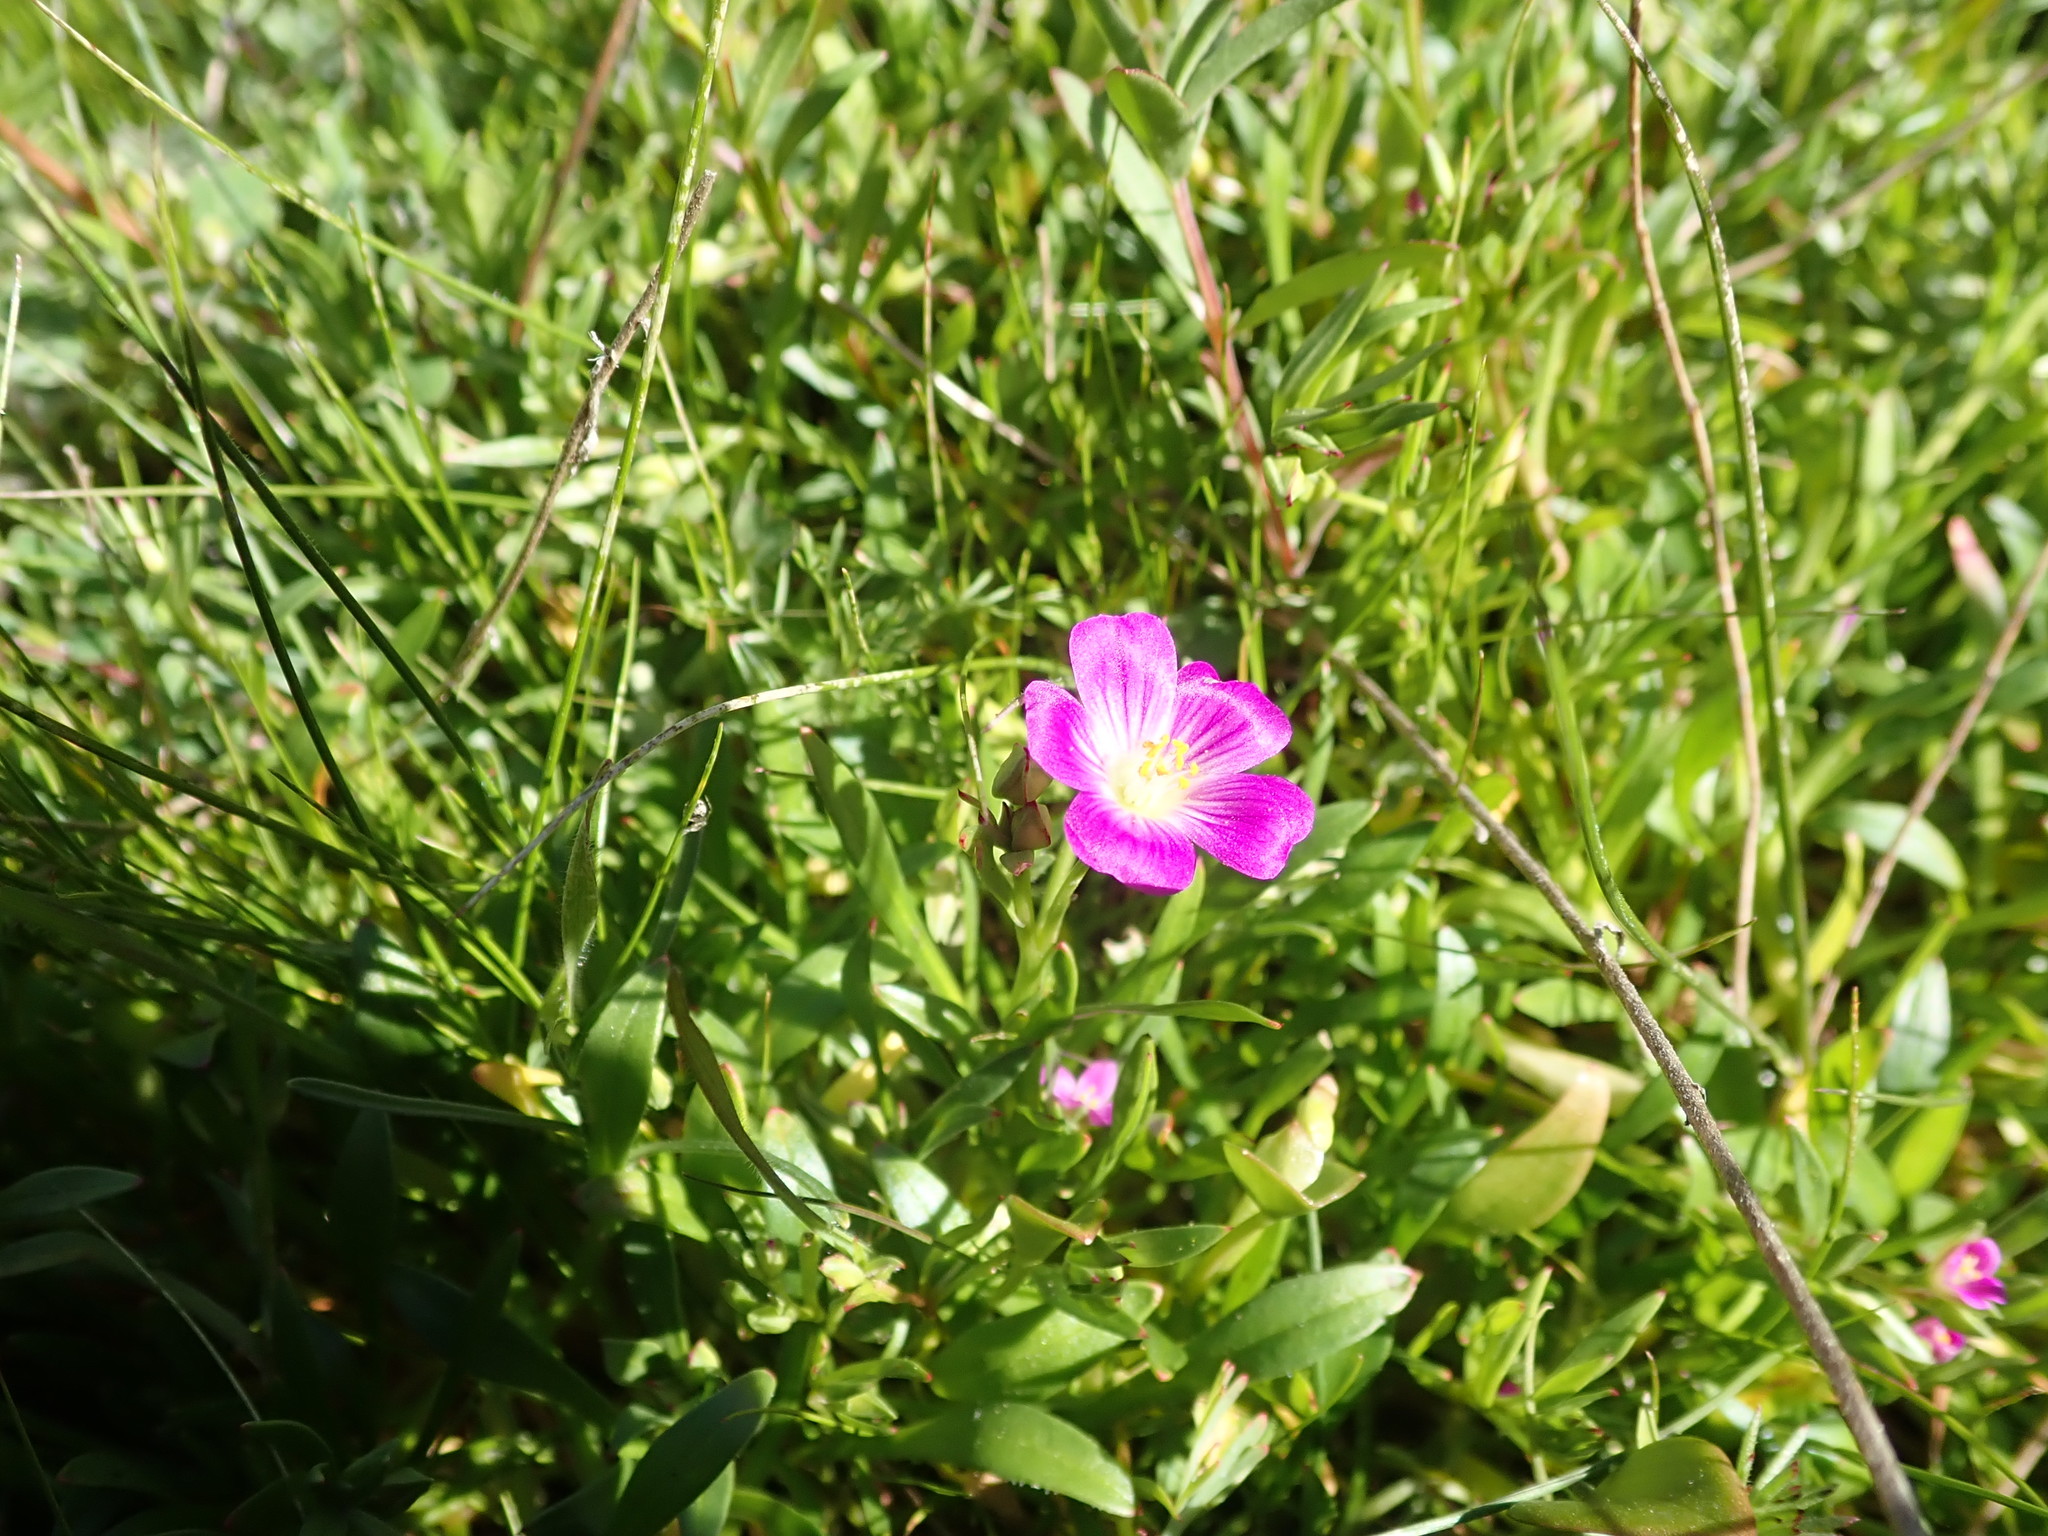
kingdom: Plantae
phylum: Tracheophyta
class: Magnoliopsida
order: Caryophyllales
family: Montiaceae
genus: Calandrinia
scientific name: Calandrinia menziesii
